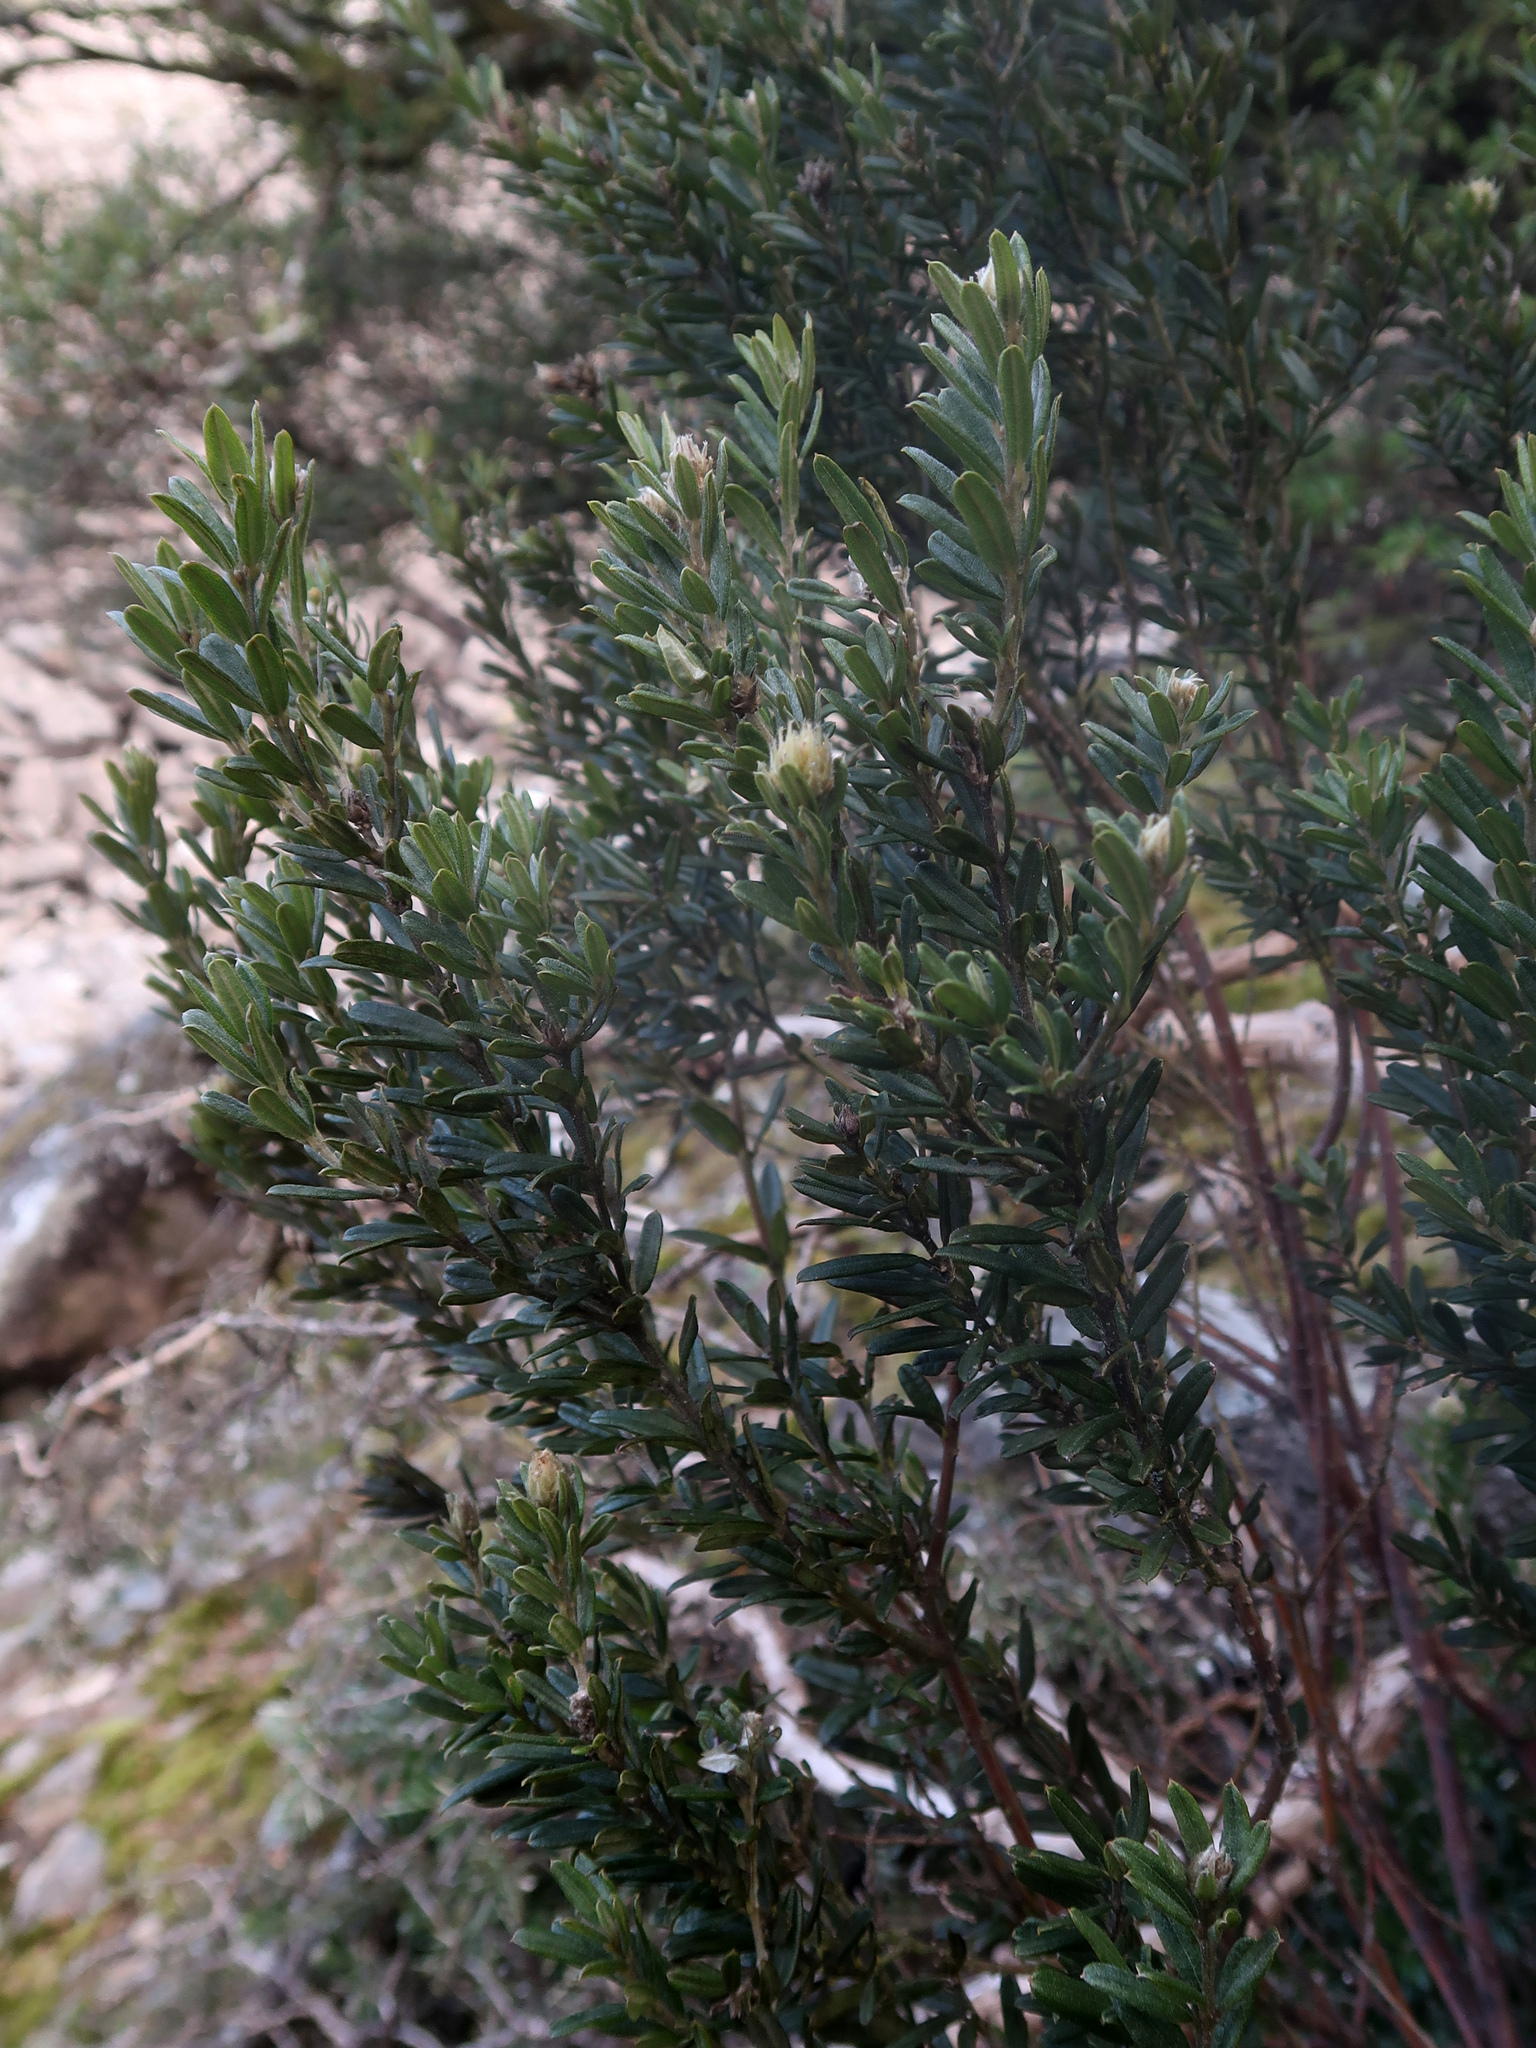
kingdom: Plantae
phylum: Tracheophyta
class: Magnoliopsida
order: Fabales
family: Fabaceae
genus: Oxylobium
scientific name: Oxylobium ellipticum
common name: Golden shaggy-pea
